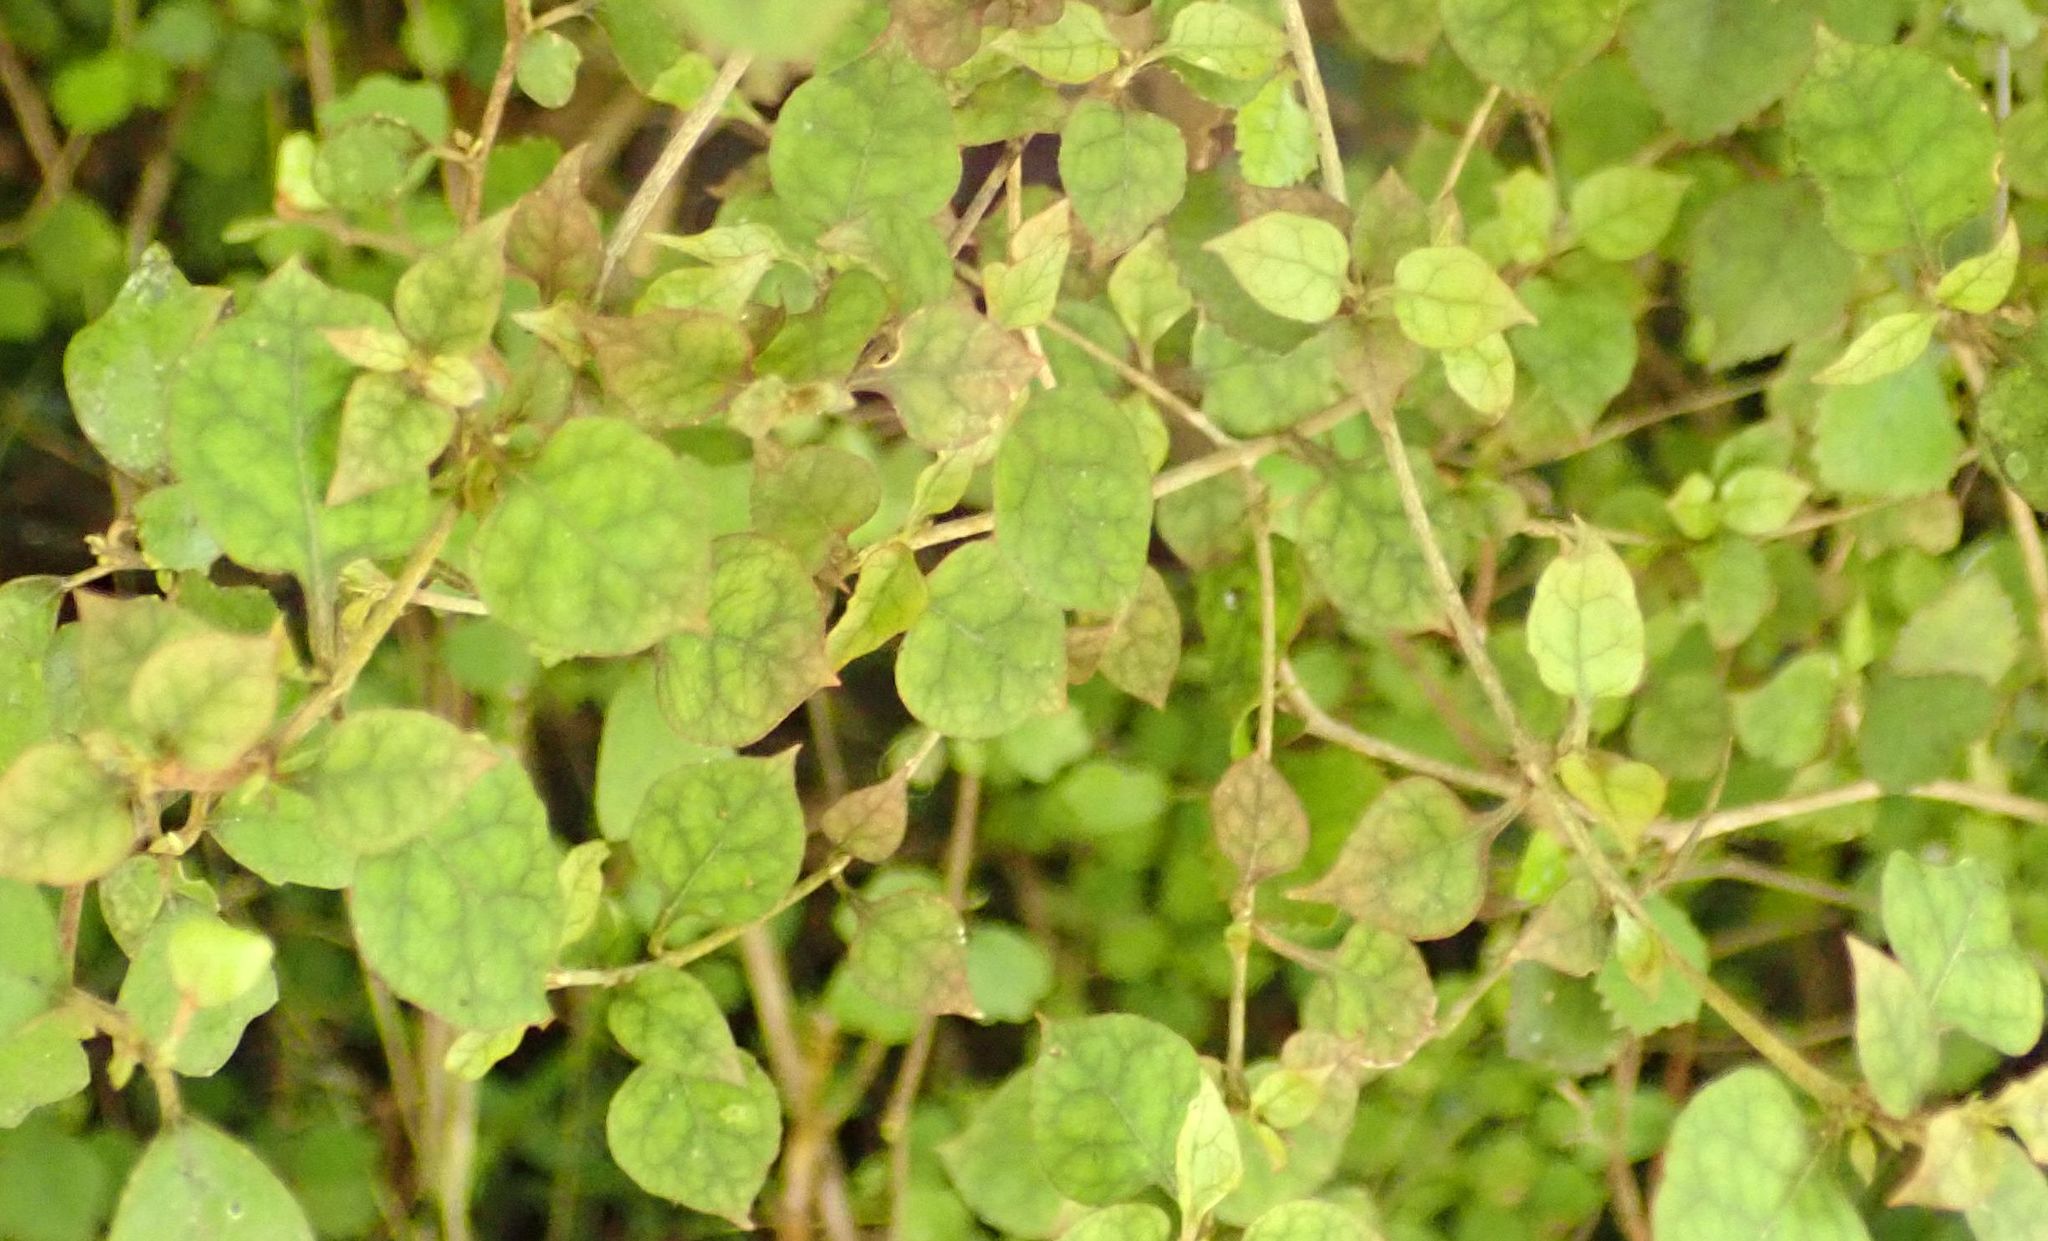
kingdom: Plantae
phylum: Tracheophyta
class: Magnoliopsida
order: Gentianales
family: Rubiaceae
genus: Coprosma
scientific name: Coprosma areolata
